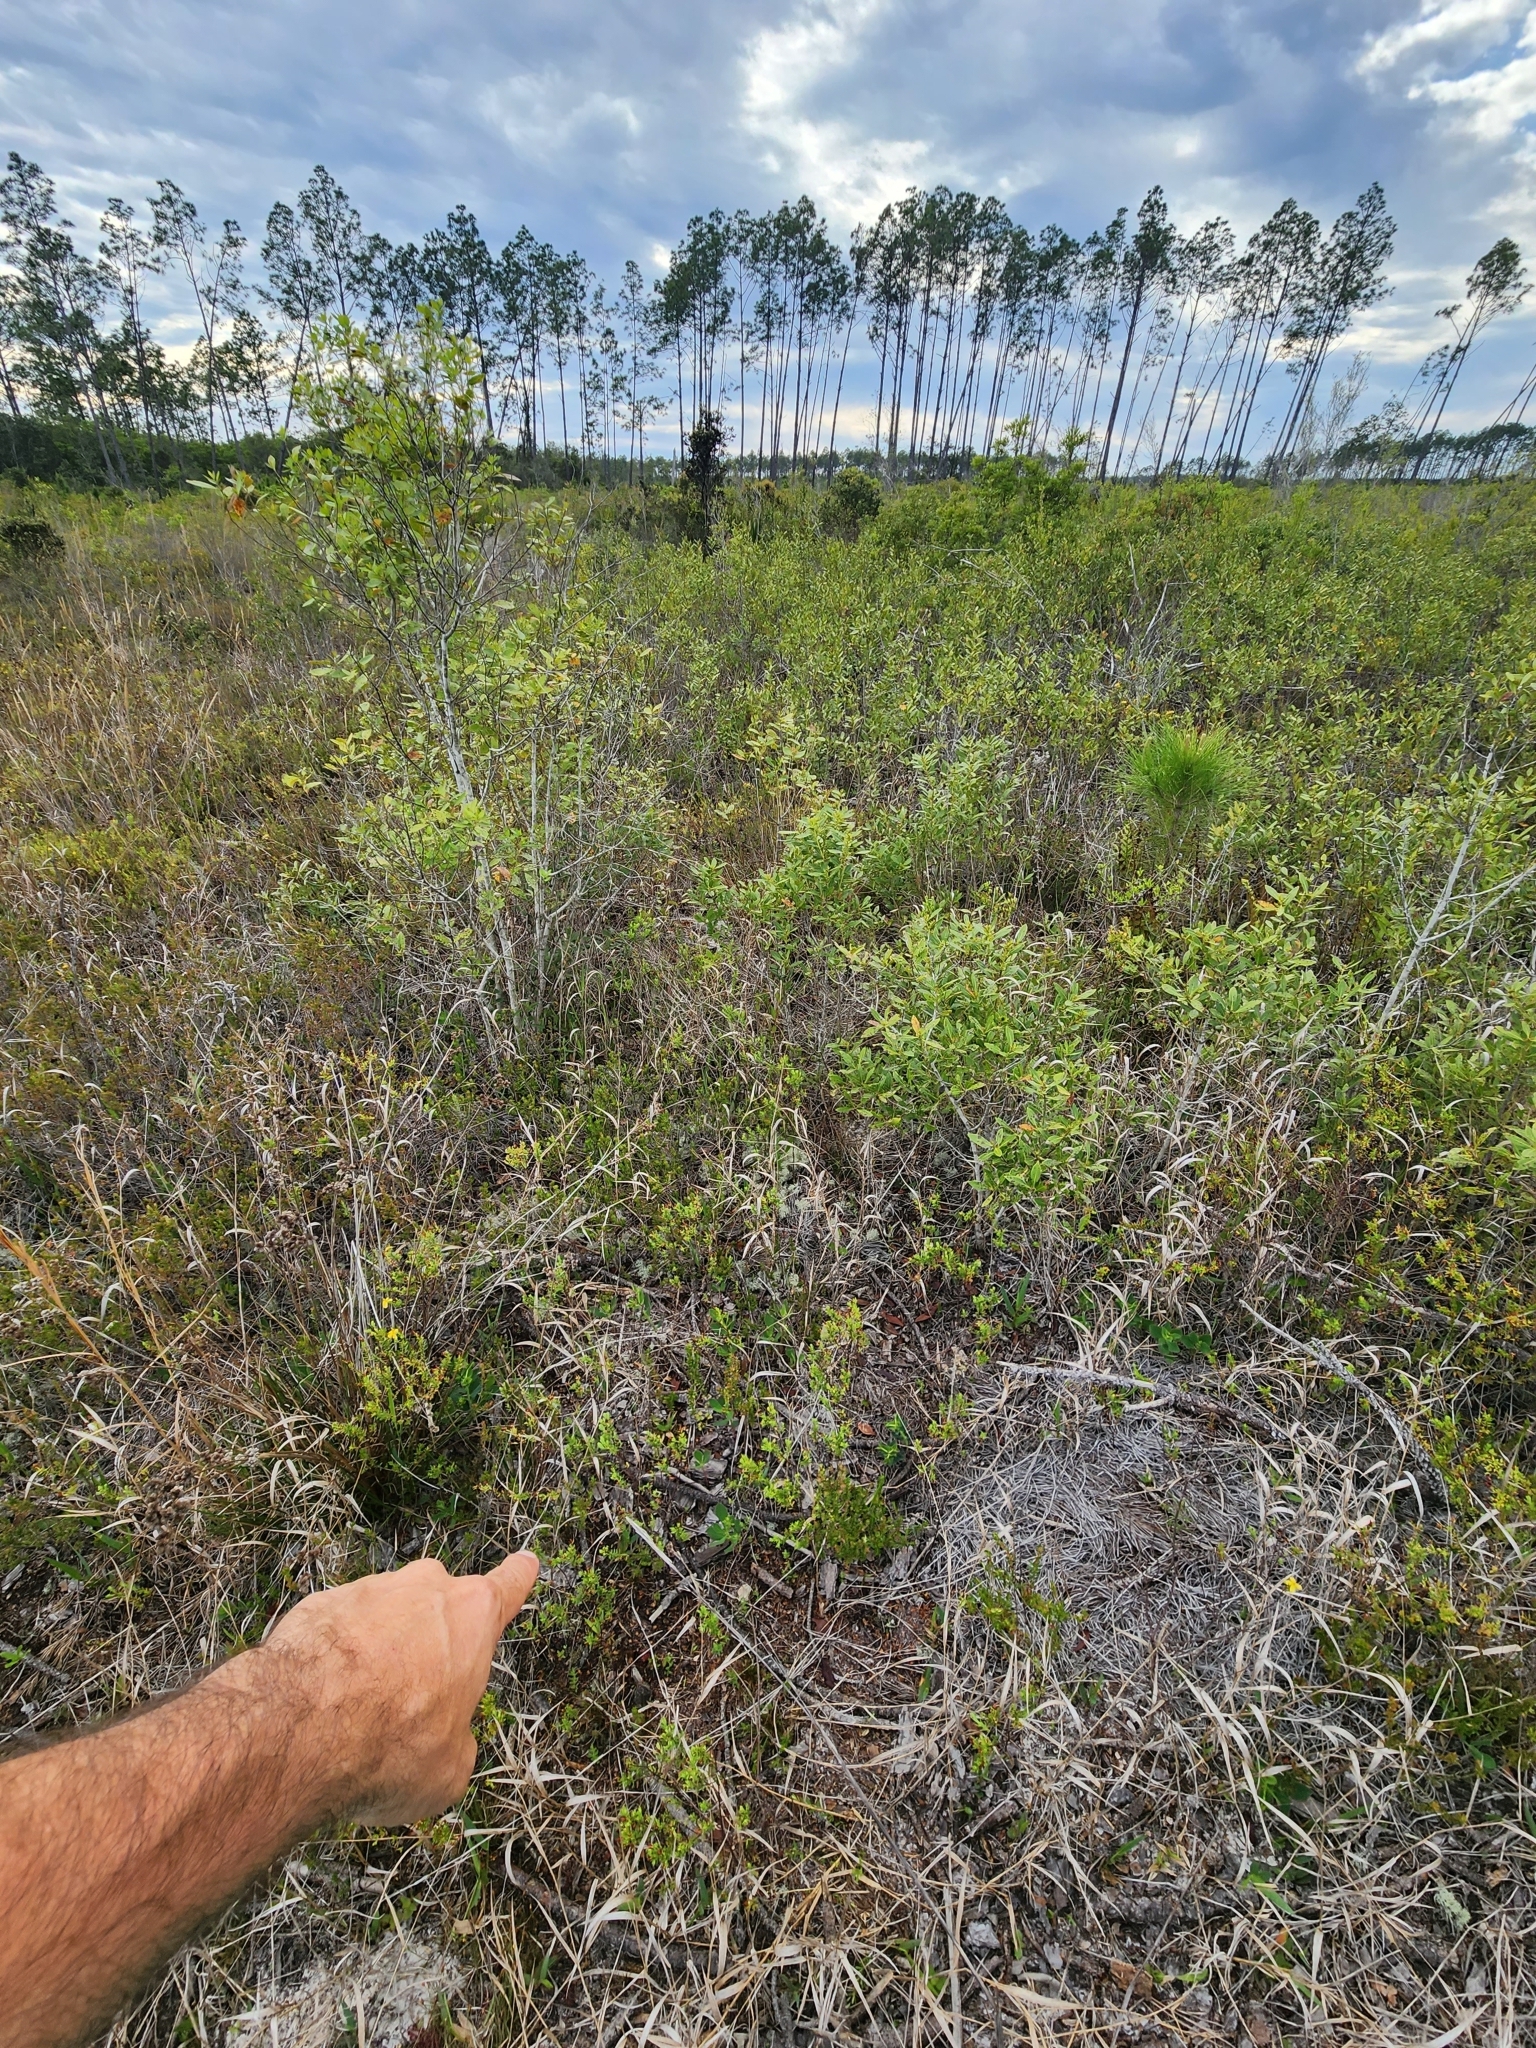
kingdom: Plantae
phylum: Tracheophyta
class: Magnoliopsida
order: Malpighiales
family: Euphorbiaceae
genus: Euphorbia
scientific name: Euphorbia telephioides
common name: Telephus spurge
